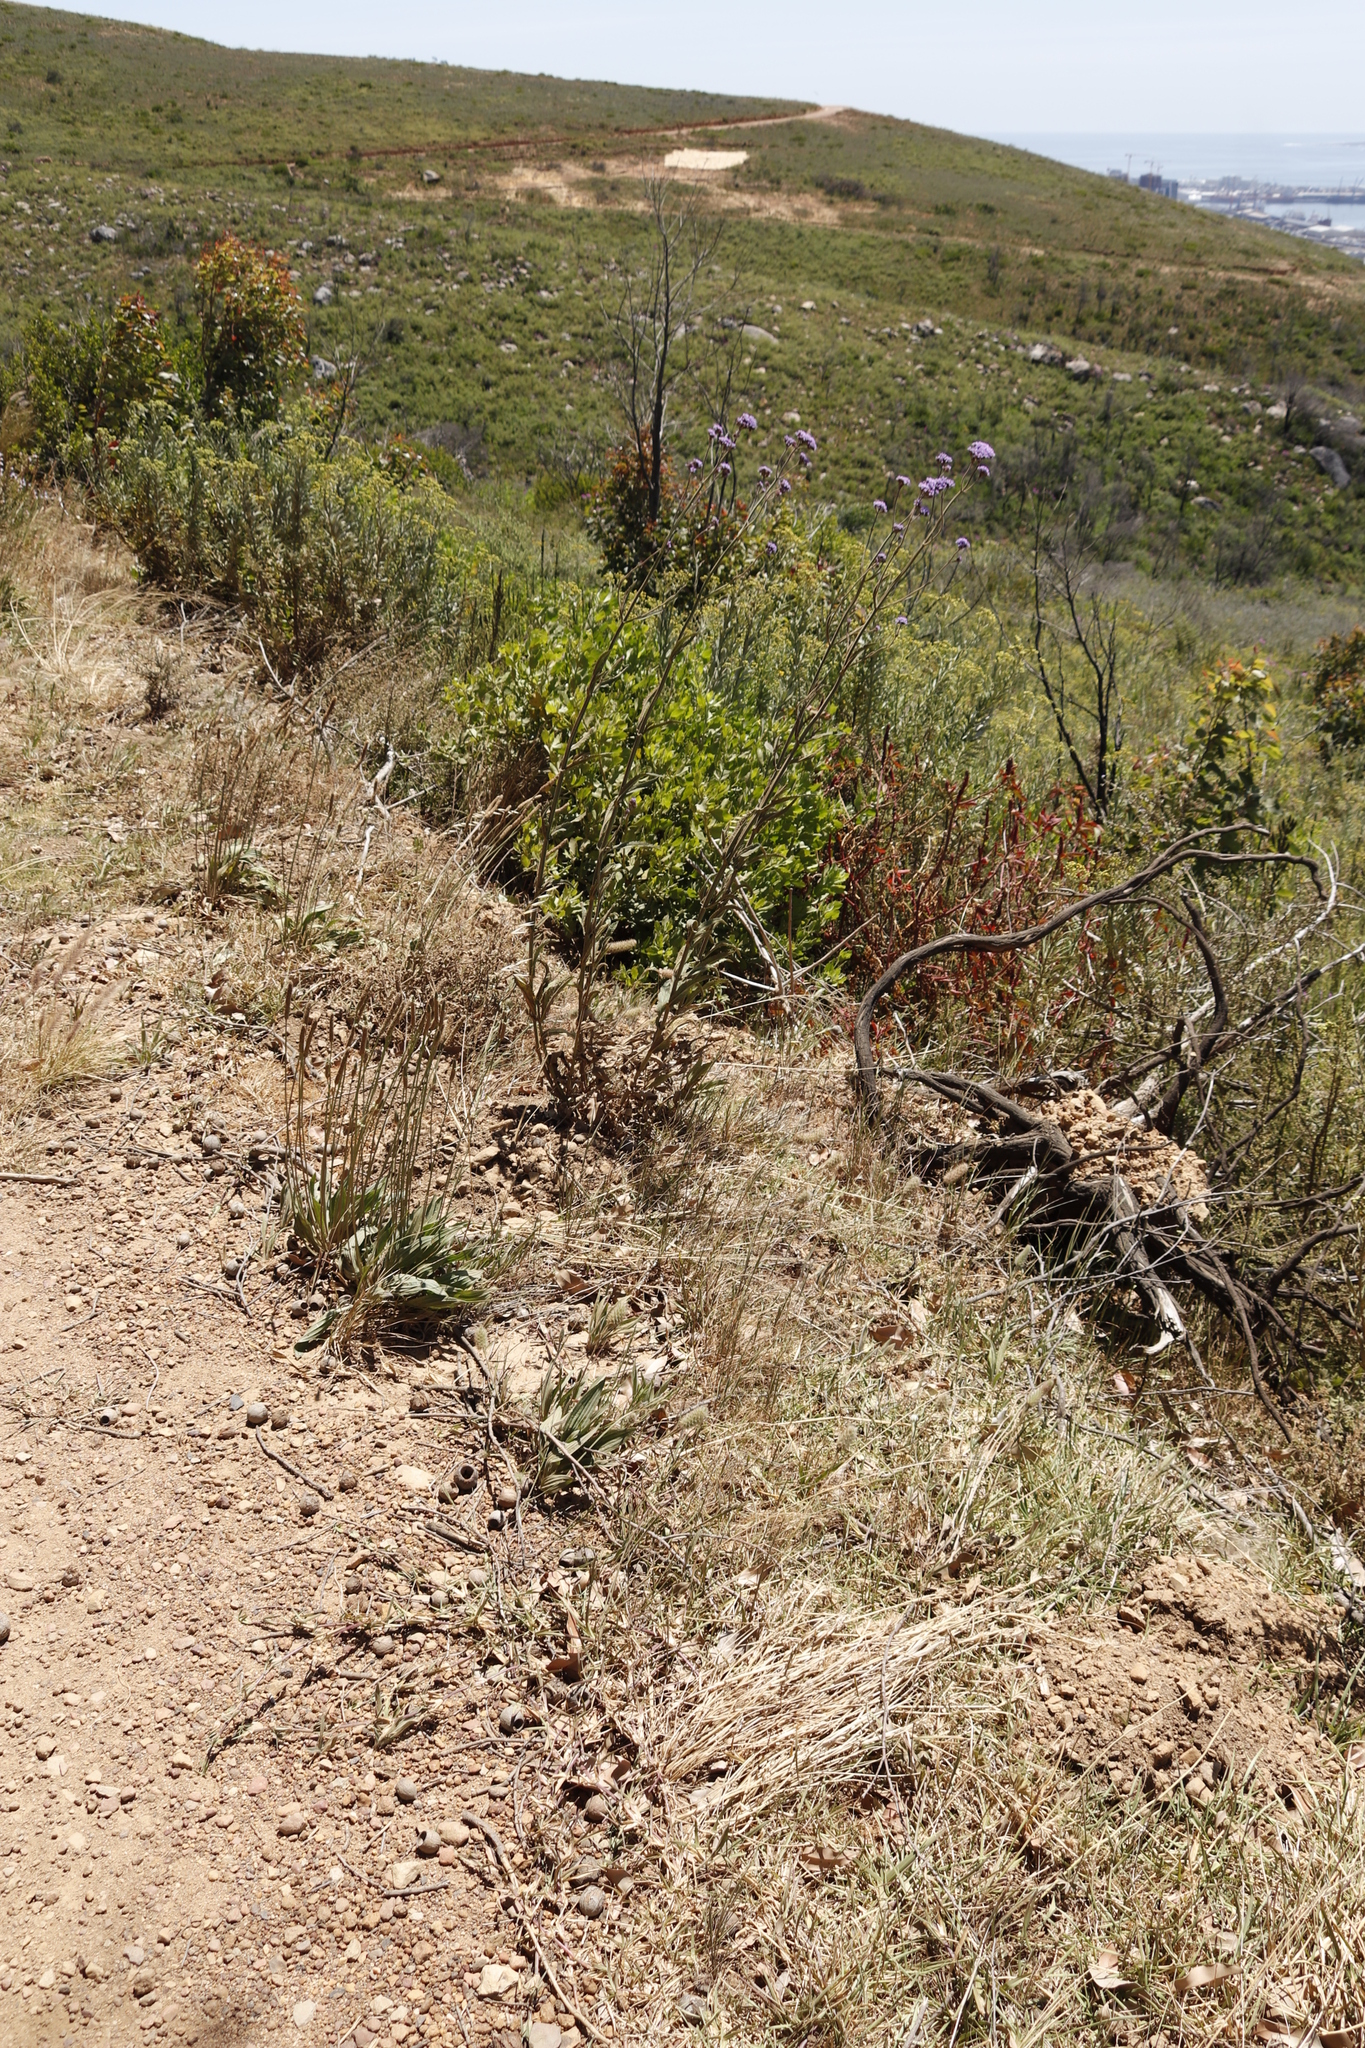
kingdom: Plantae
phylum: Tracheophyta
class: Magnoliopsida
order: Lamiales
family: Plantaginaceae
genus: Plantago
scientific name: Plantago lanceolata
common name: Ribwort plantain
